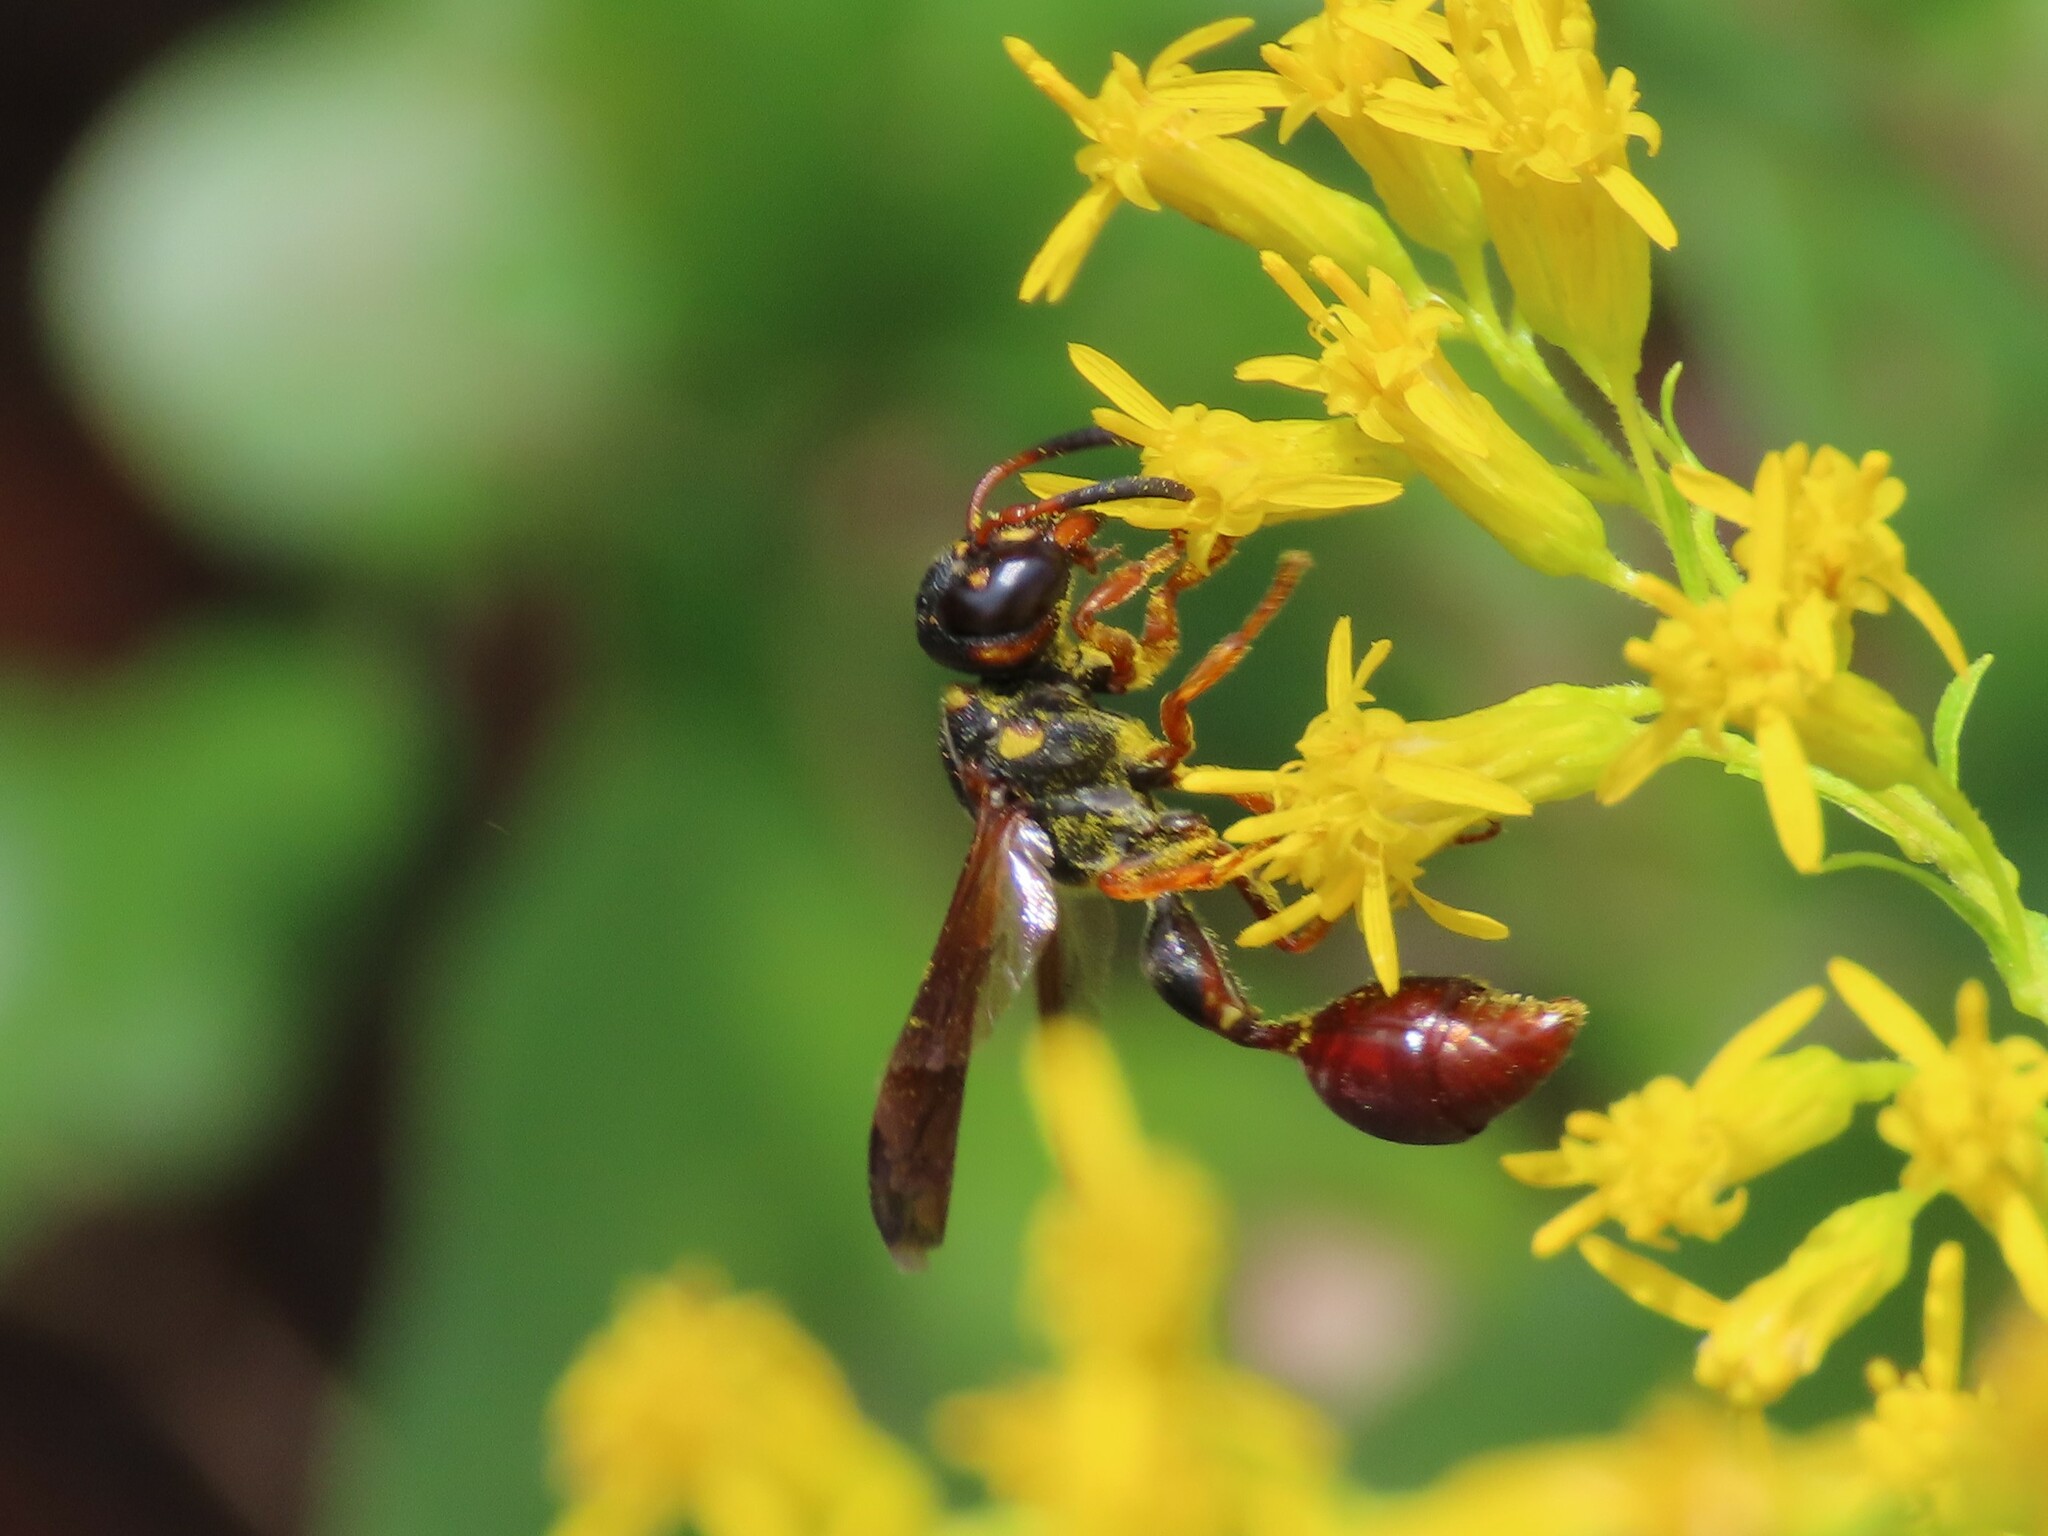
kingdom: Animalia
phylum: Arthropoda
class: Insecta
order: Hymenoptera
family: Eumenidae
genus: Zethus
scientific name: Zethus slossonae
